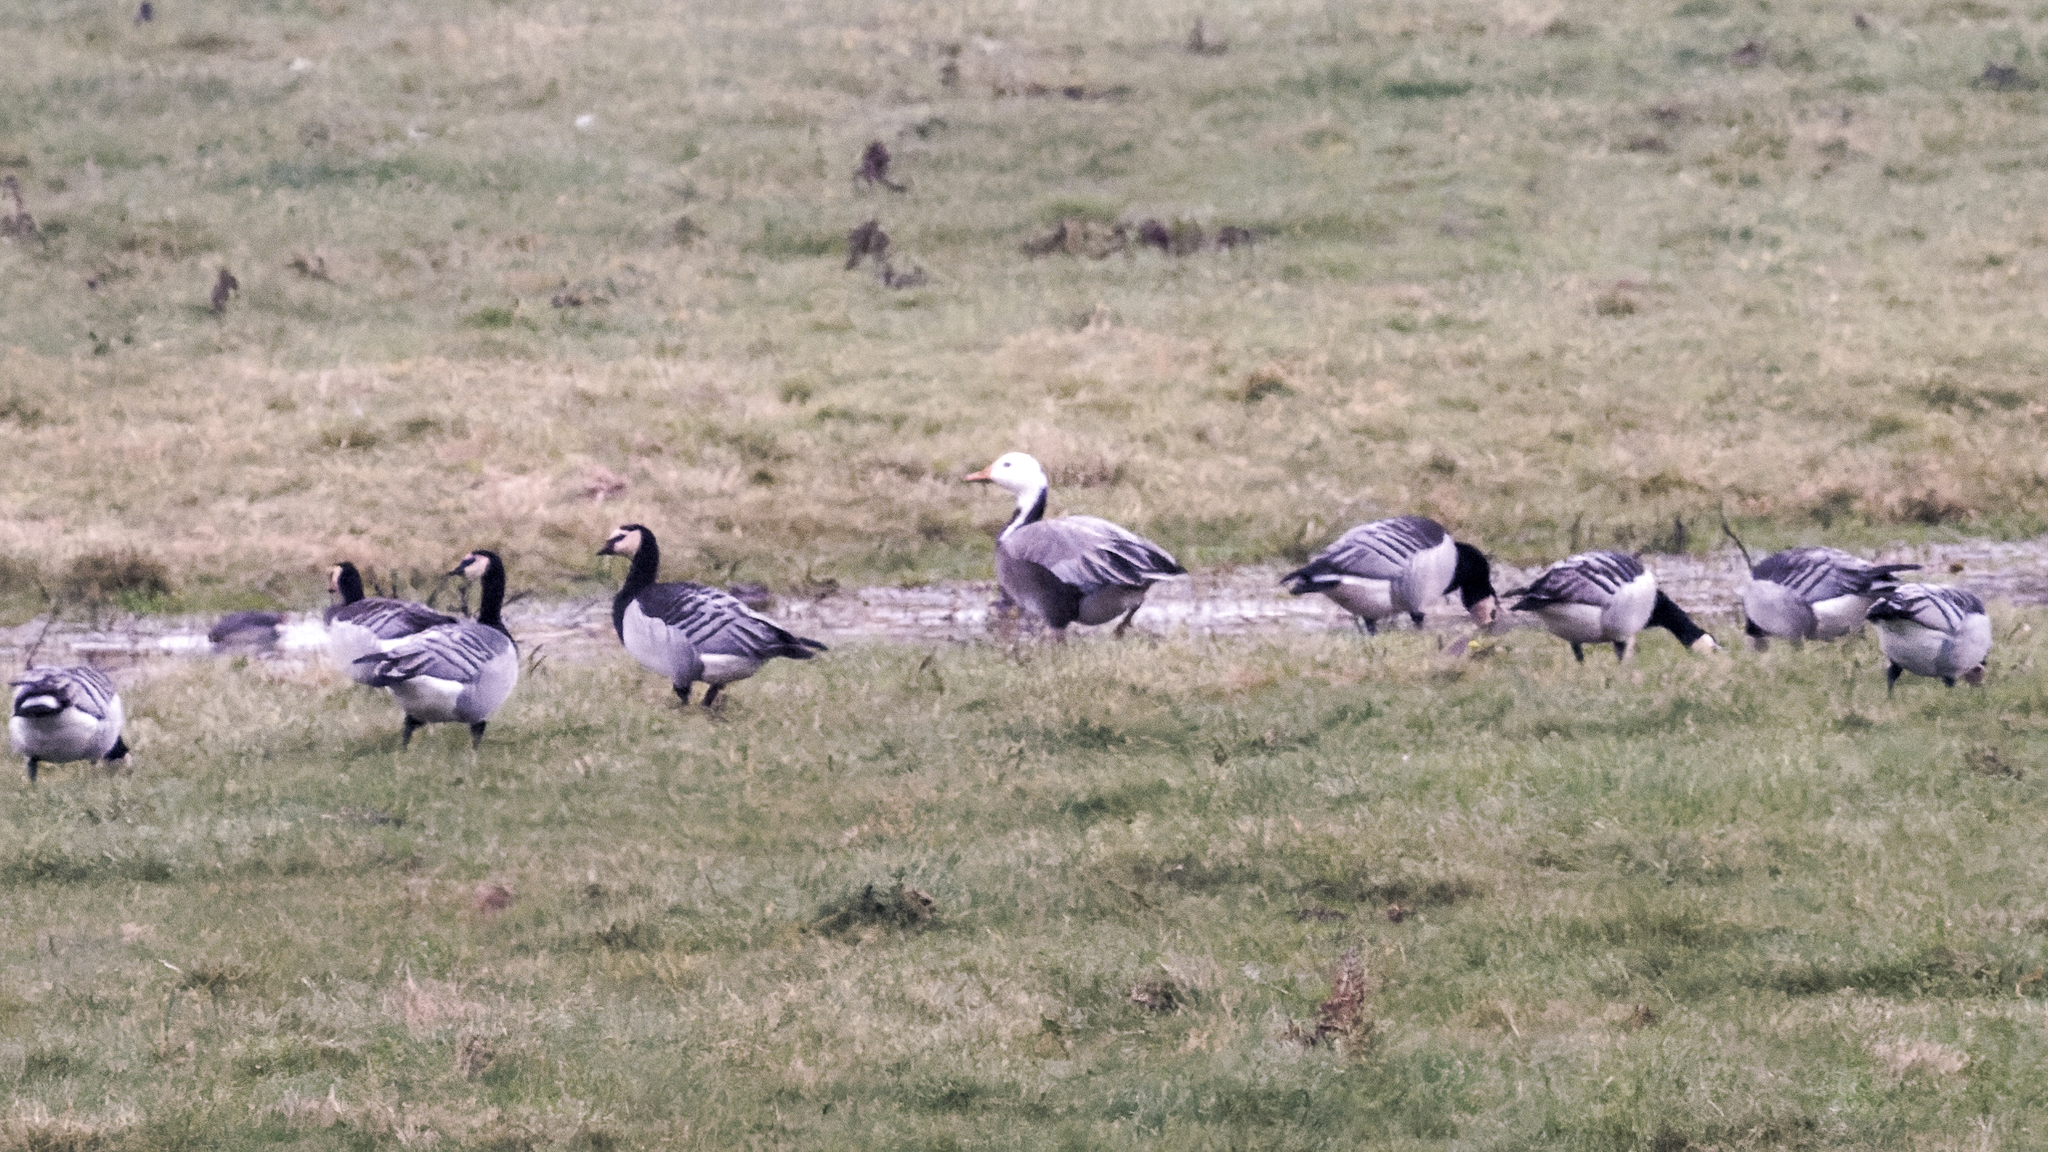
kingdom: Animalia
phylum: Chordata
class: Aves
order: Anseriformes
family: Anatidae
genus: Anser
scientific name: Anser caerulescens
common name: Snow goose
